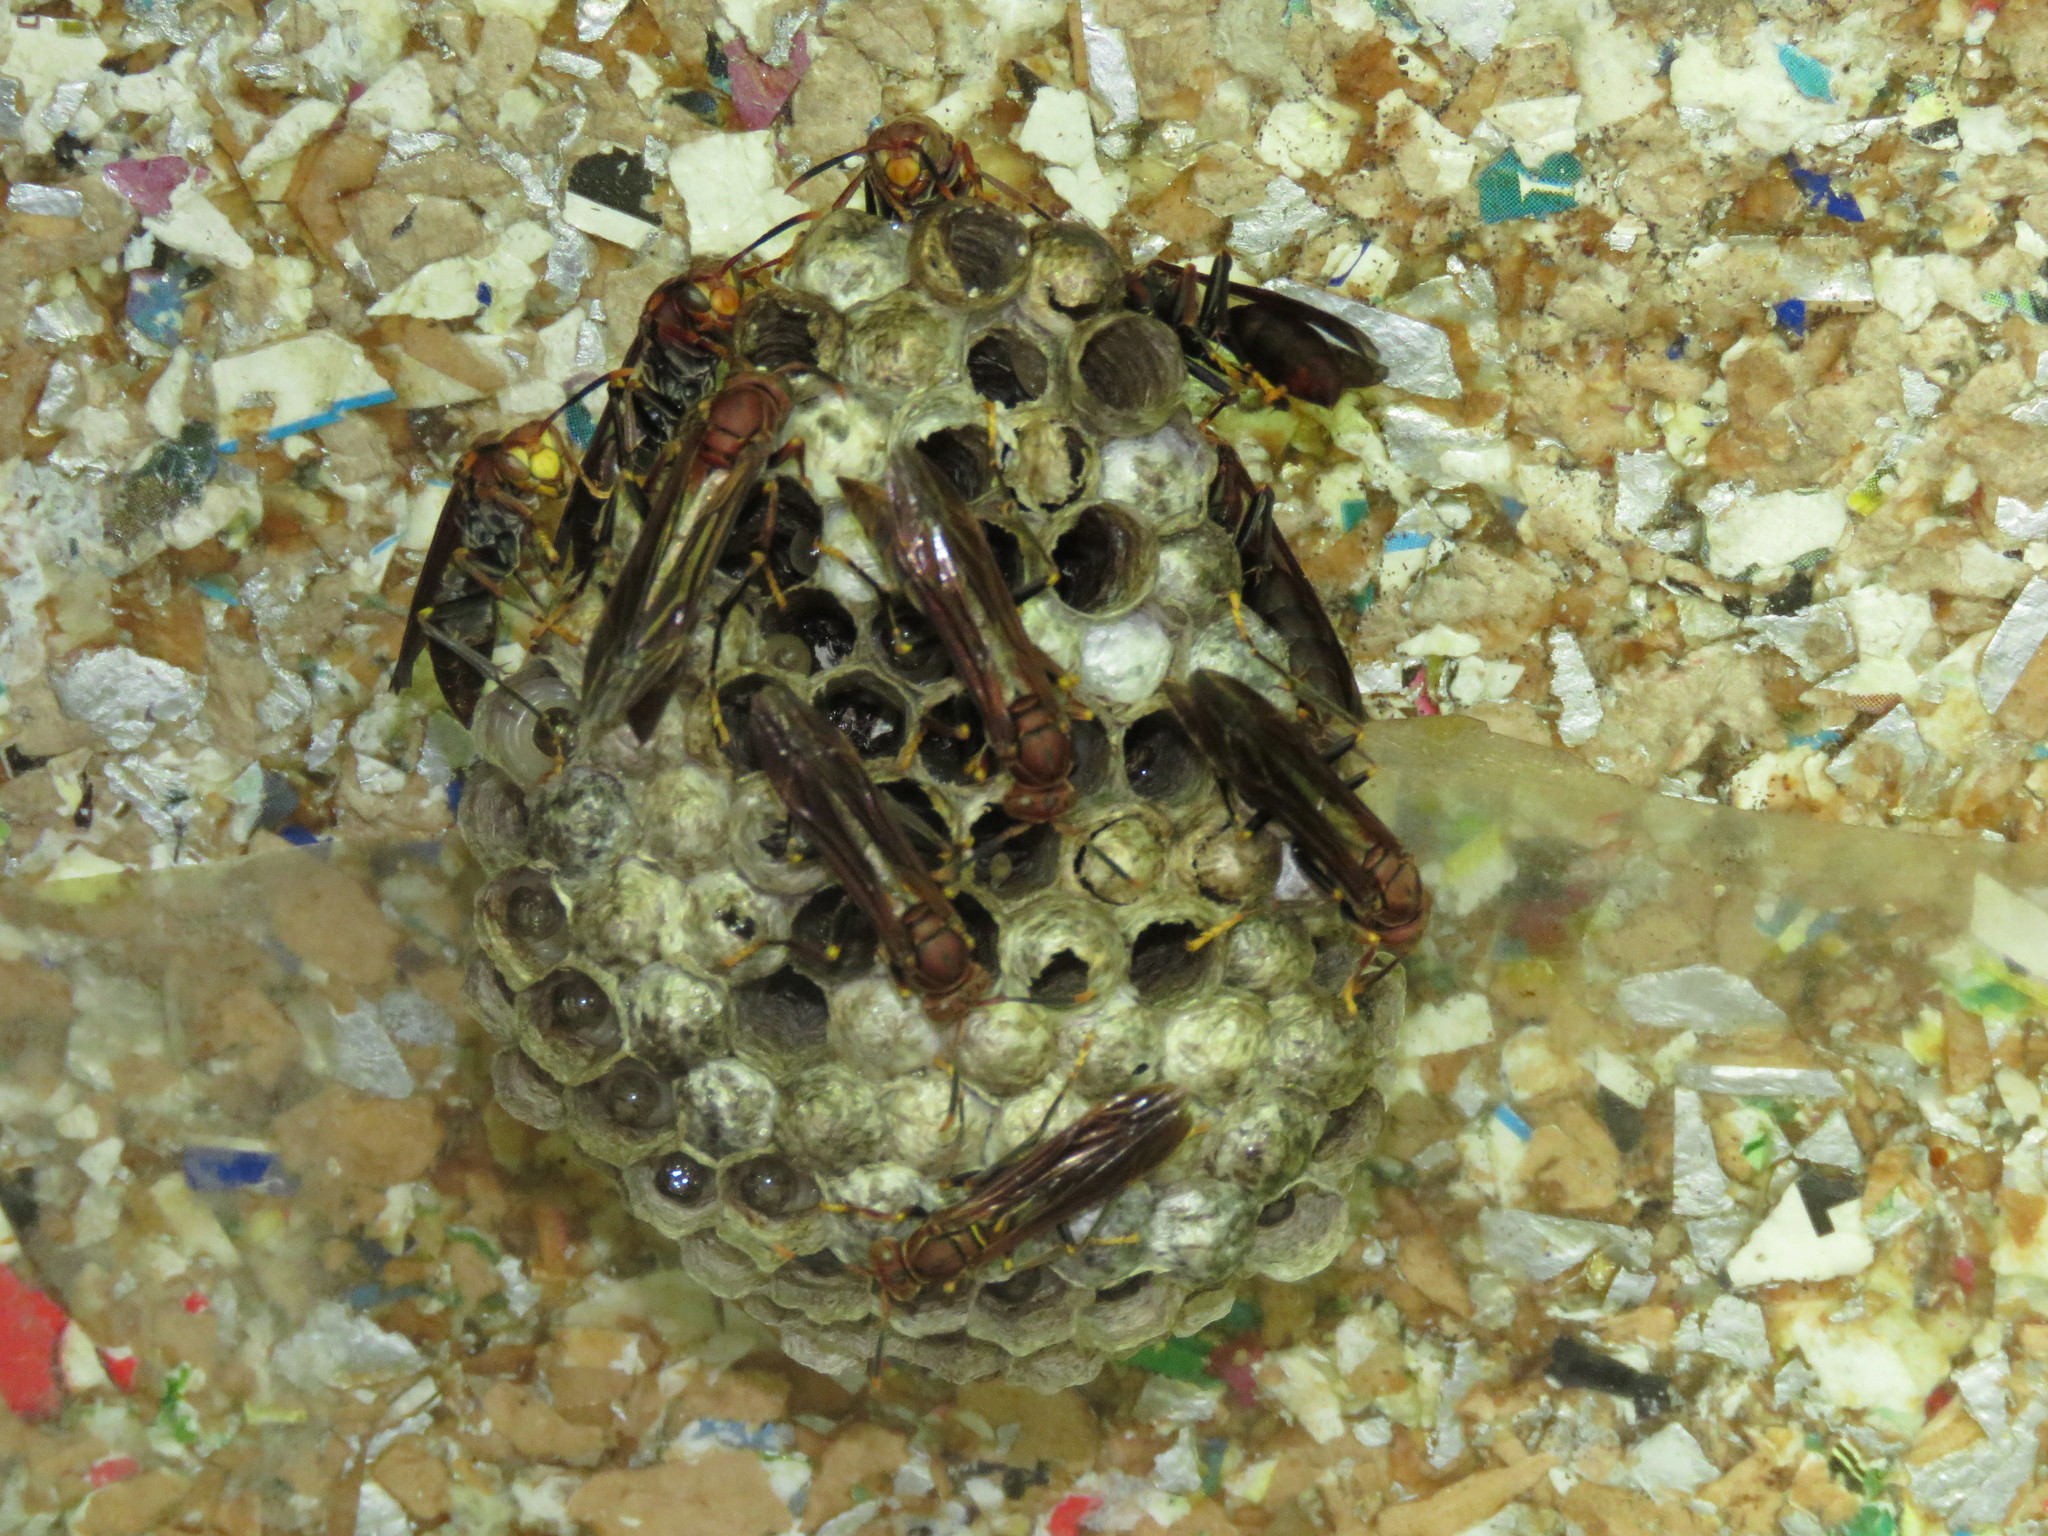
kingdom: Animalia
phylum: Arthropoda
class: Insecta
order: Hymenoptera
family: Pompilidae
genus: Aphanilopterus
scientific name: Aphanilopterus
